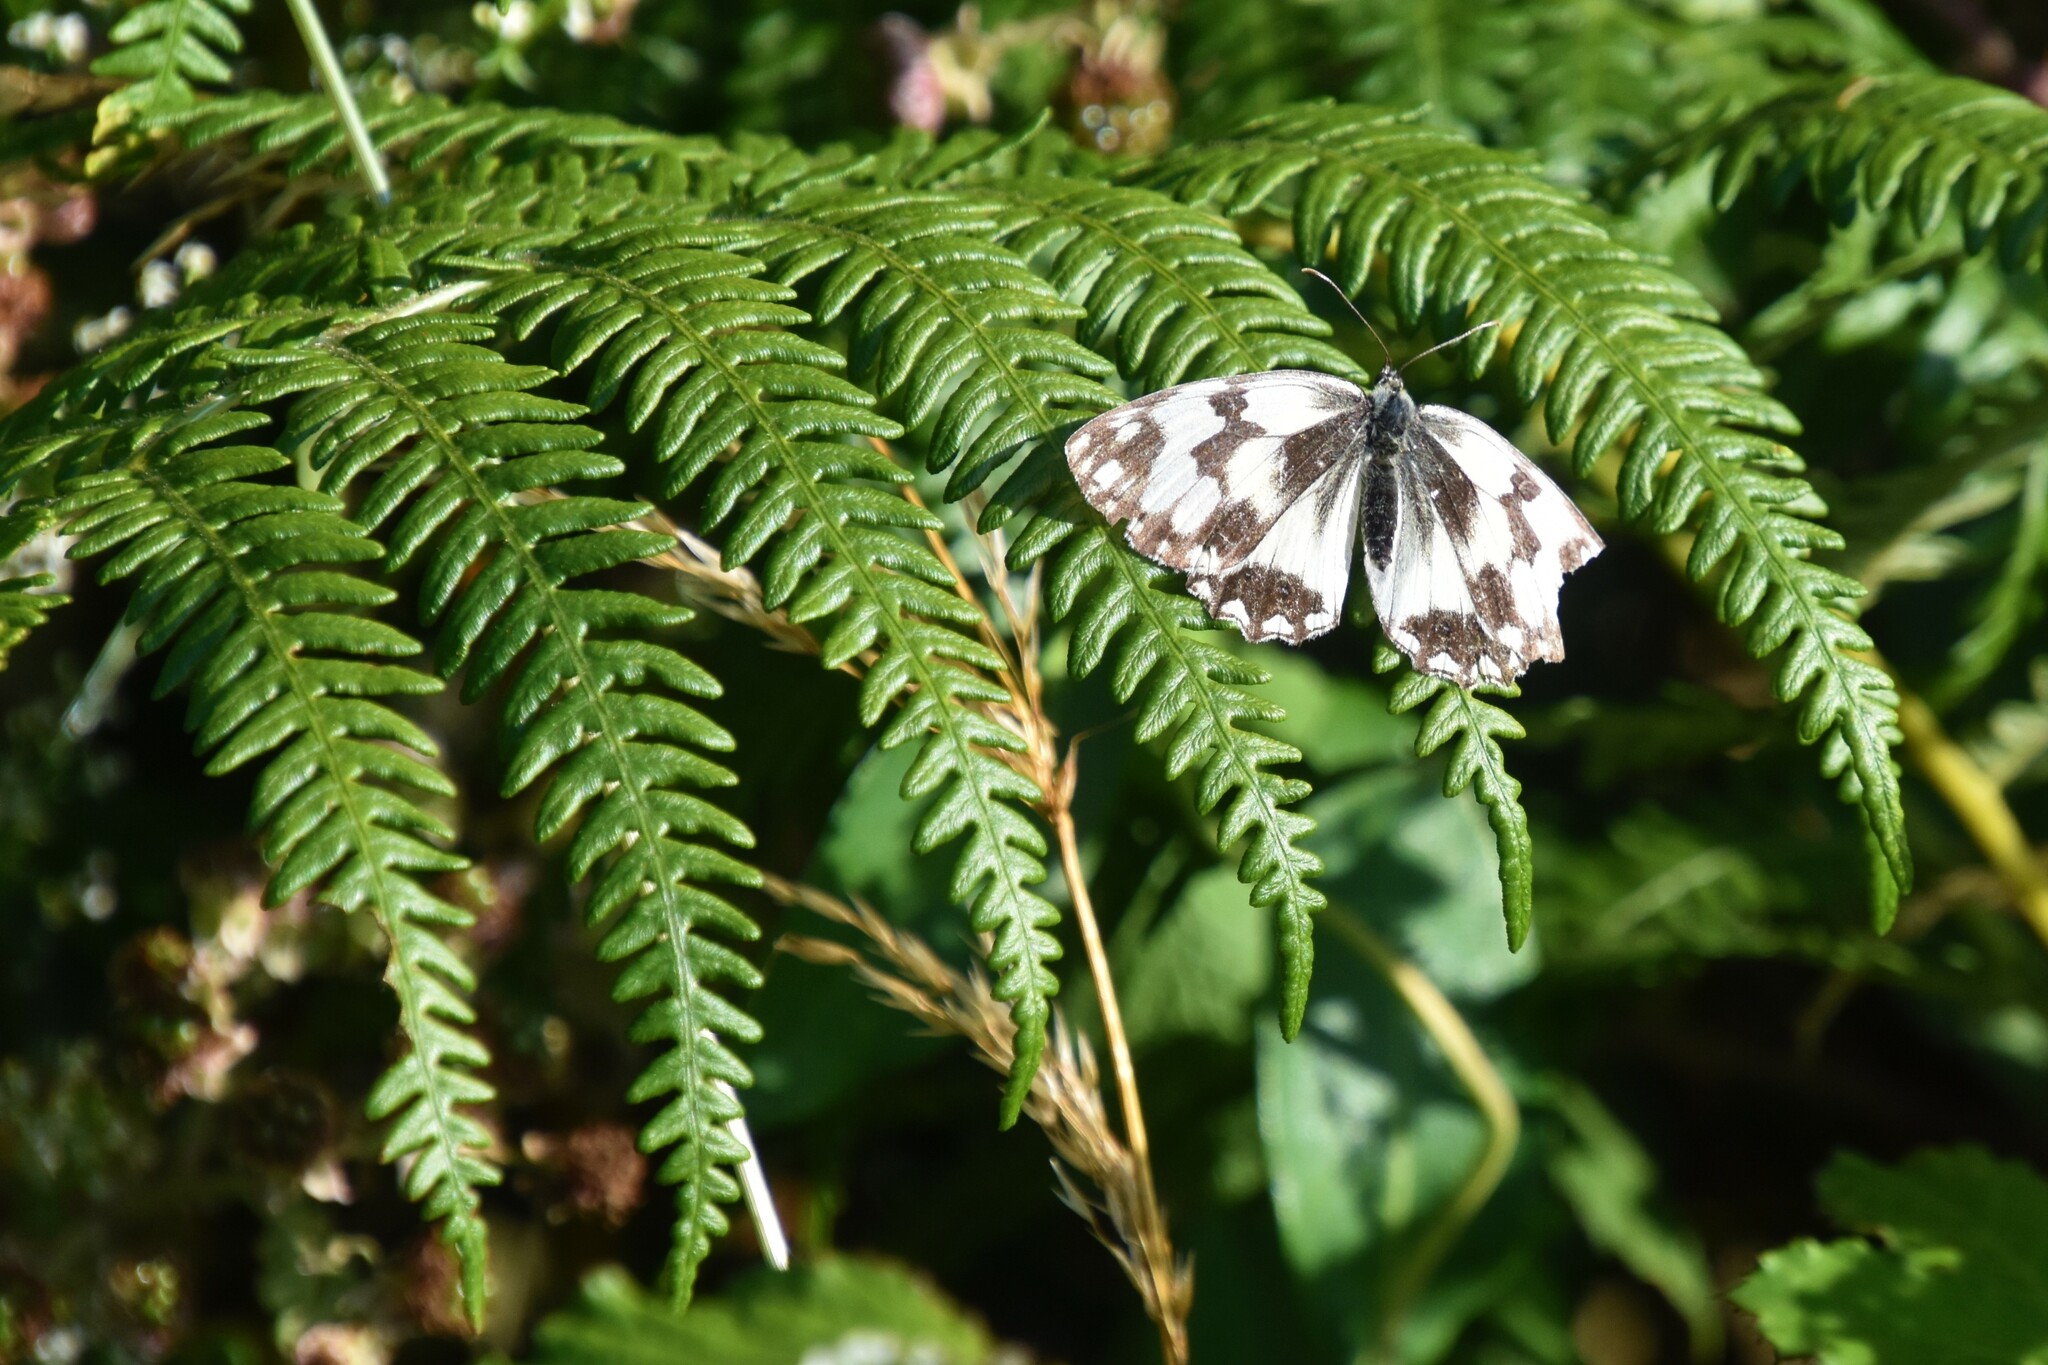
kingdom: Animalia
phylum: Arthropoda
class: Insecta
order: Lepidoptera
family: Nymphalidae
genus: Melanargia
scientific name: Melanargia lachesis
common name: Iberian marbled white
